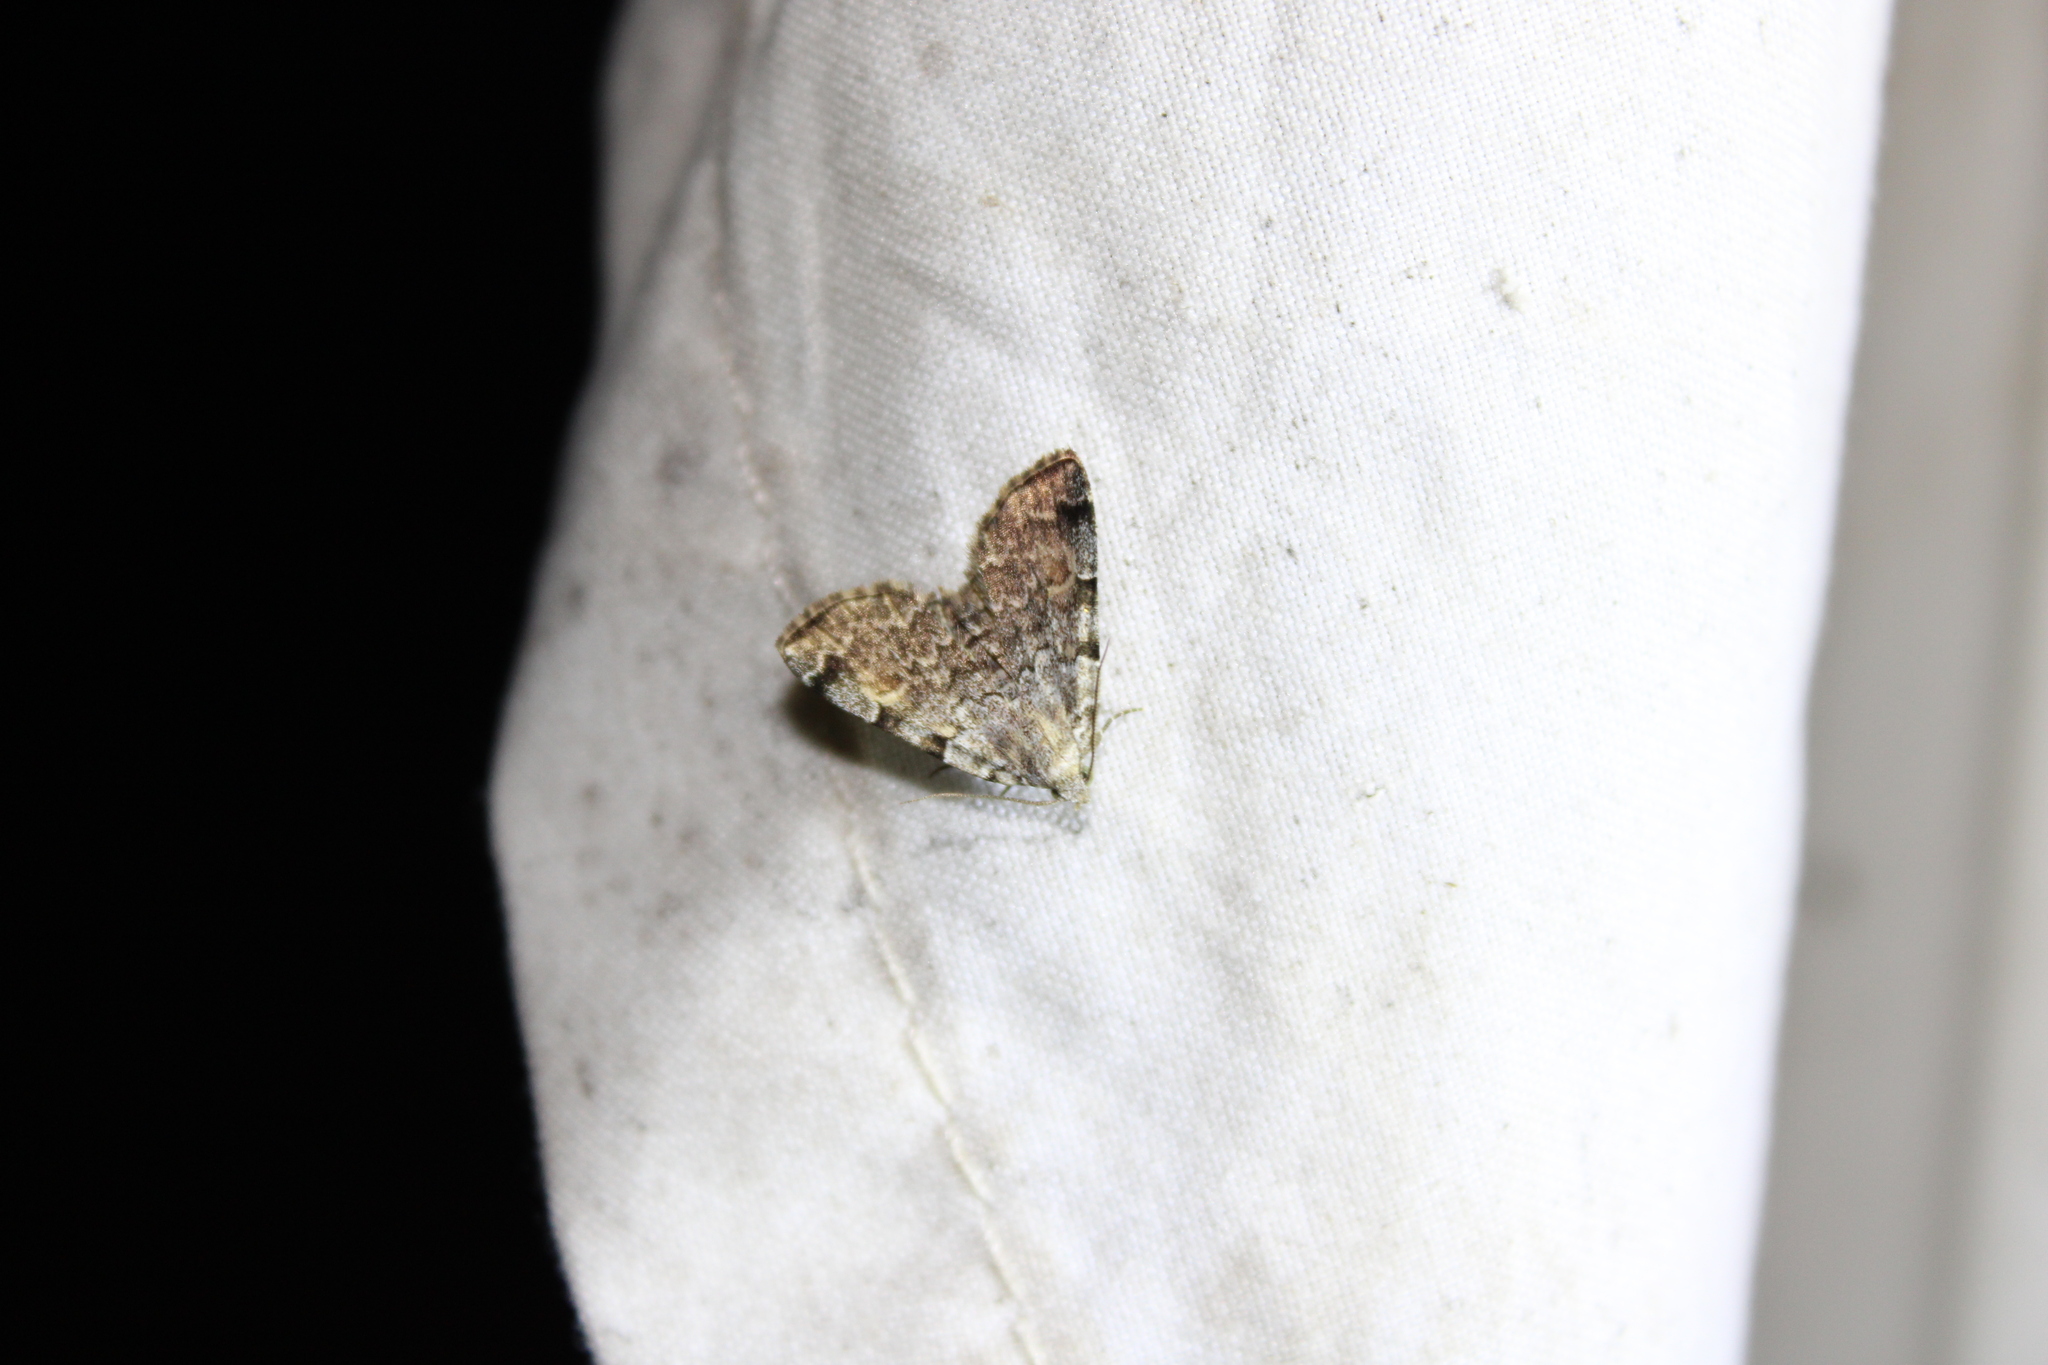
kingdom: Animalia
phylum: Arthropoda
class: Insecta
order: Lepidoptera
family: Erebidae
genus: Idia
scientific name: Idia americalis
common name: American idia moth
